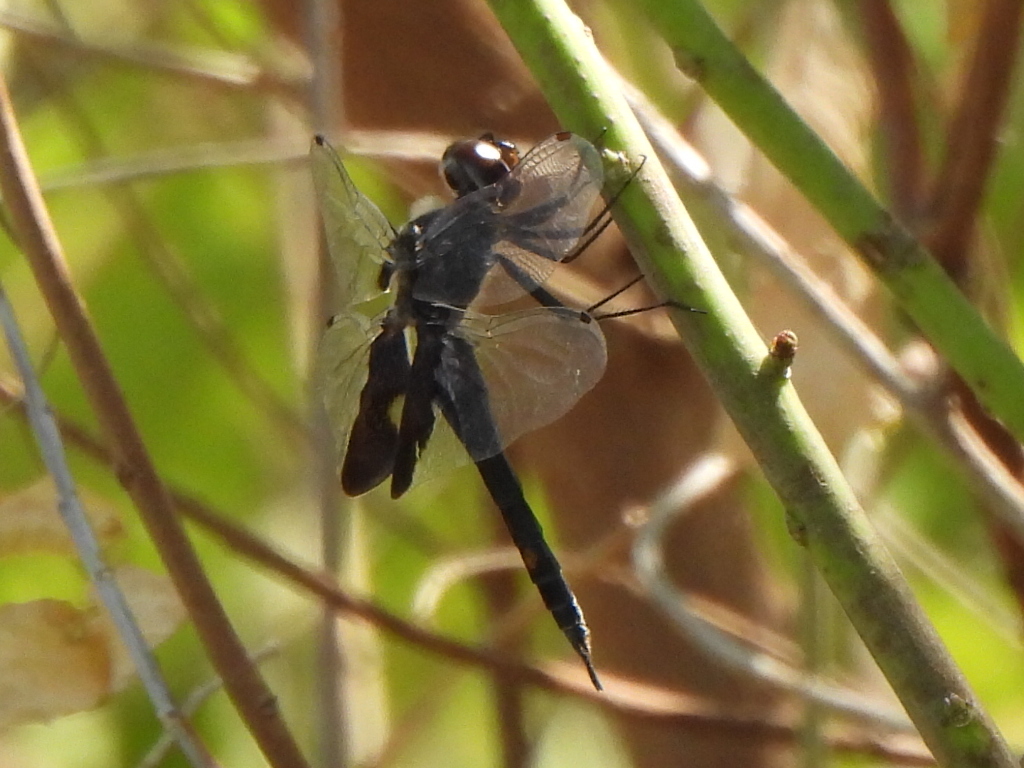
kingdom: Animalia
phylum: Arthropoda
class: Insecta
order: Odonata
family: Libellulidae
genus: Tramea
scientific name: Tramea lacerata
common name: Black saddlebags
